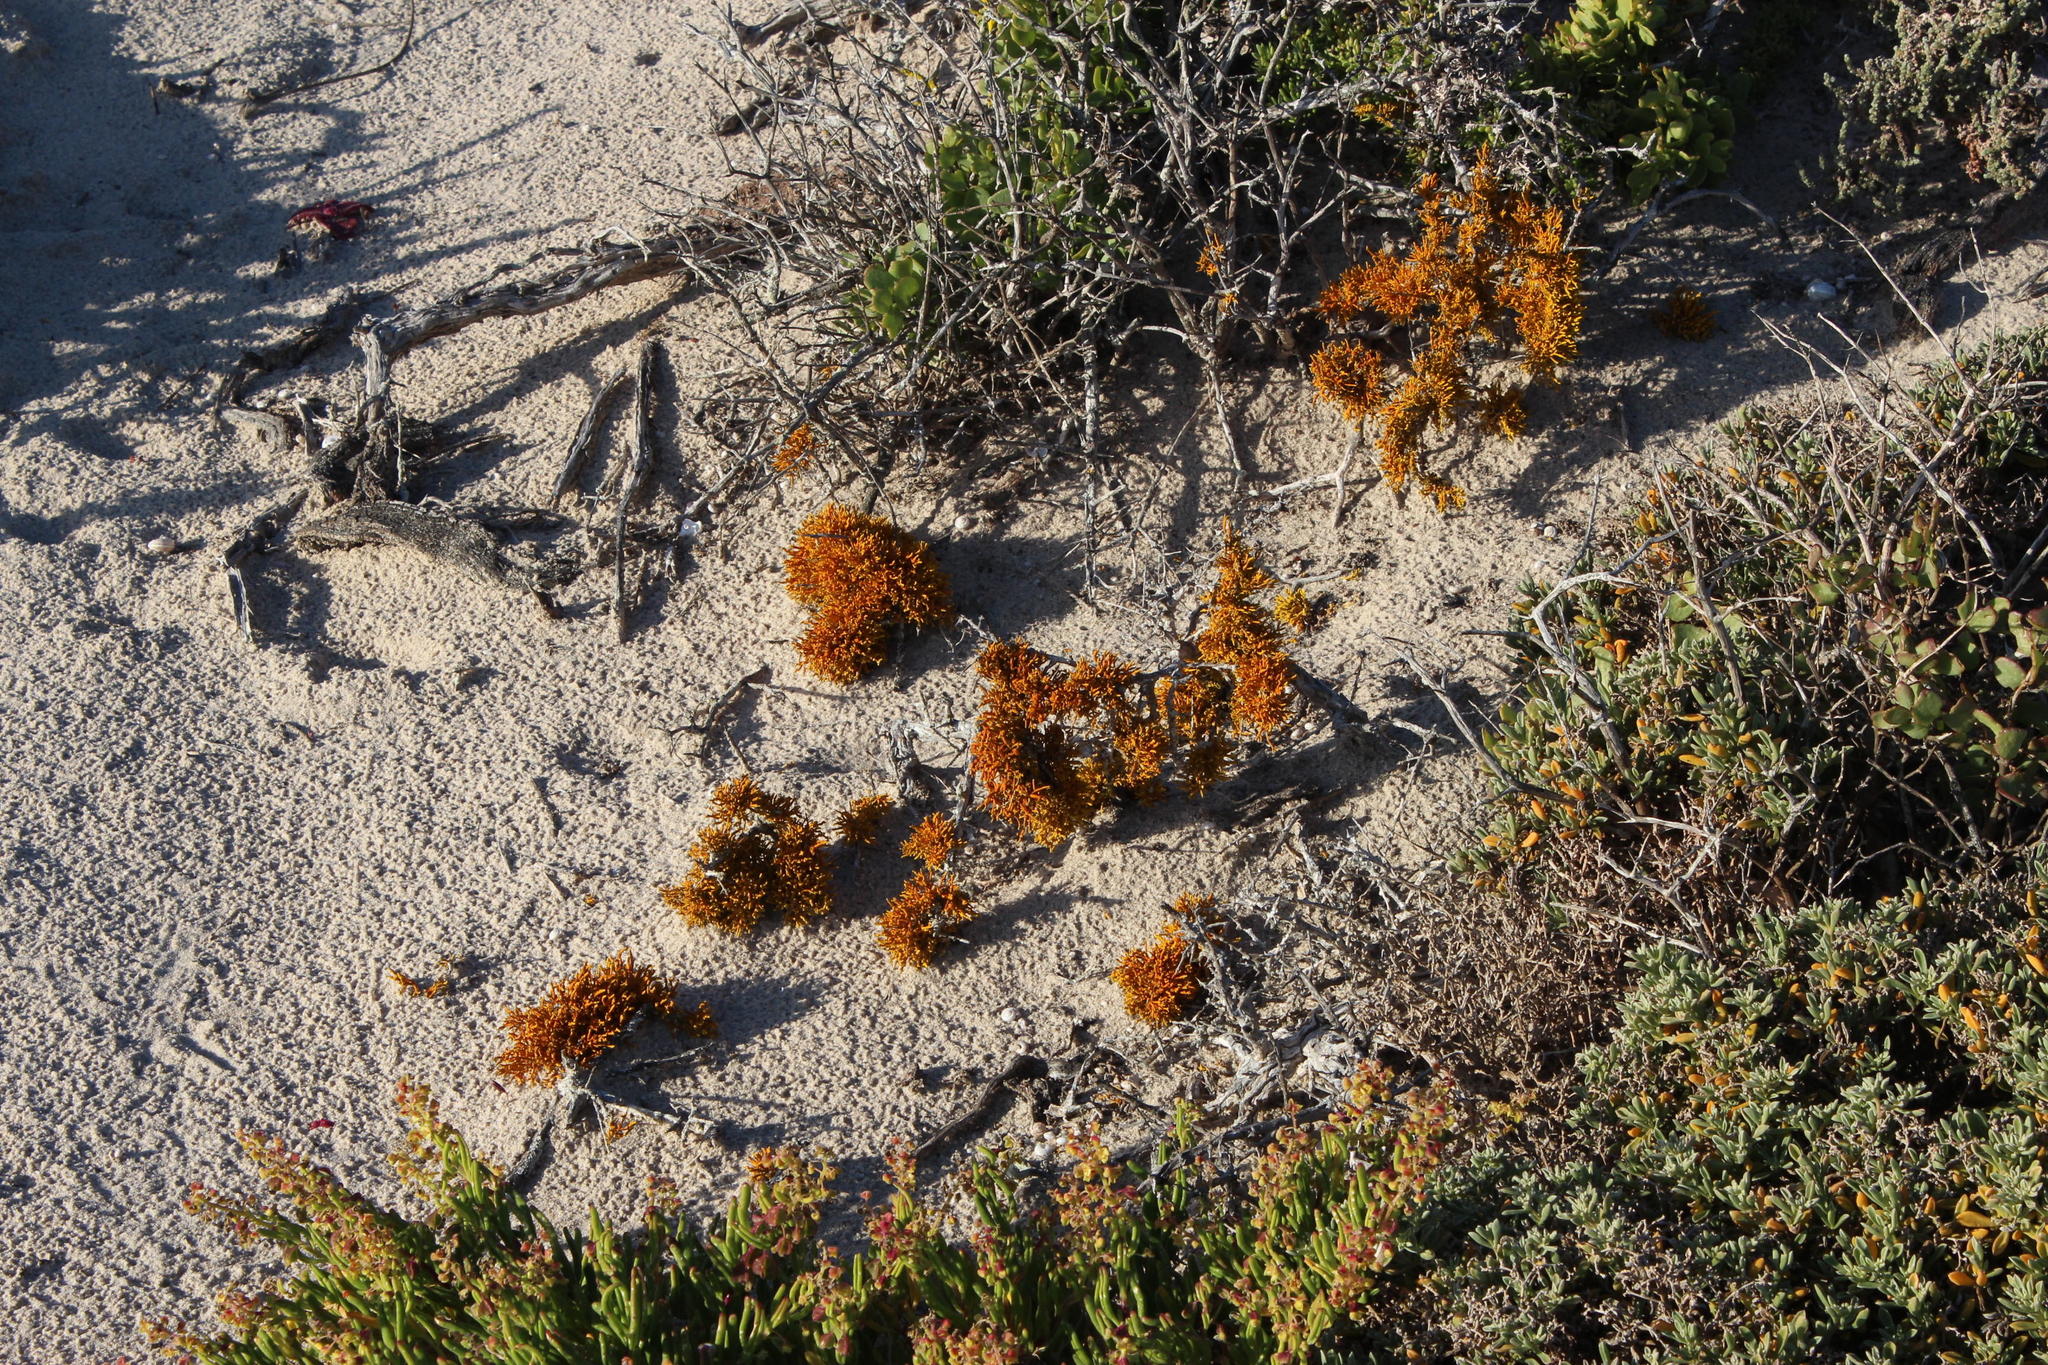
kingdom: Fungi
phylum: Ascomycota
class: Lecanoromycetes
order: Teloschistales
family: Teloschistaceae
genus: Dufourea
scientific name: Dufourea flammea
